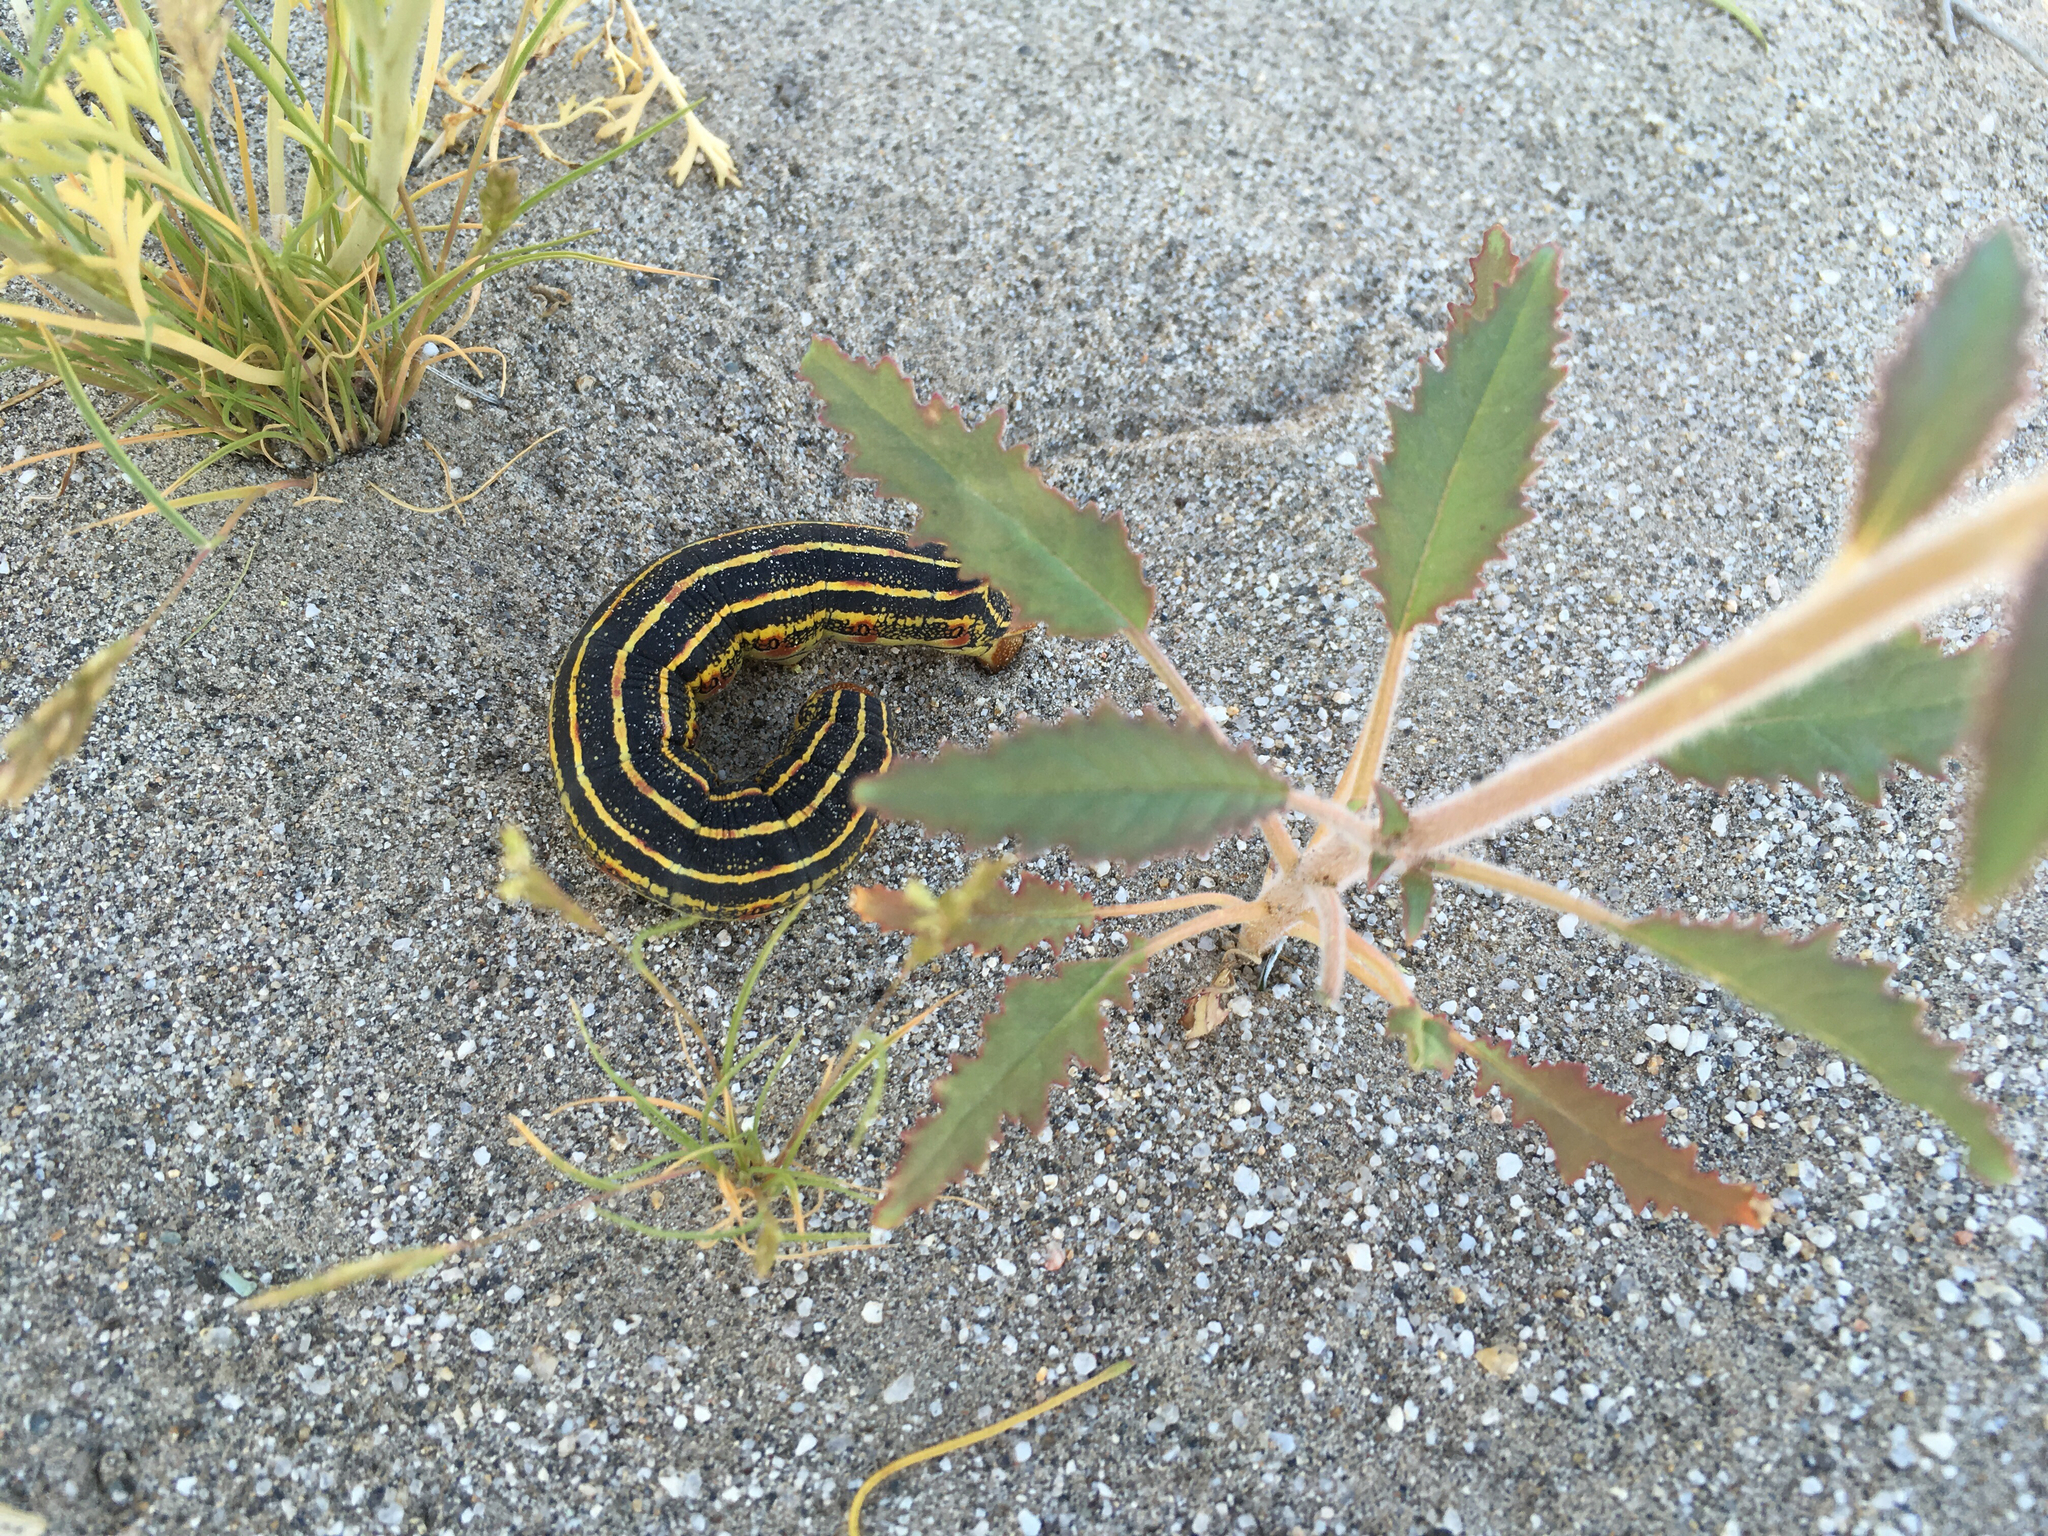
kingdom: Animalia
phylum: Arthropoda
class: Insecta
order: Lepidoptera
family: Sphingidae
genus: Hyles
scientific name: Hyles lineata
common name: White-lined sphinx
